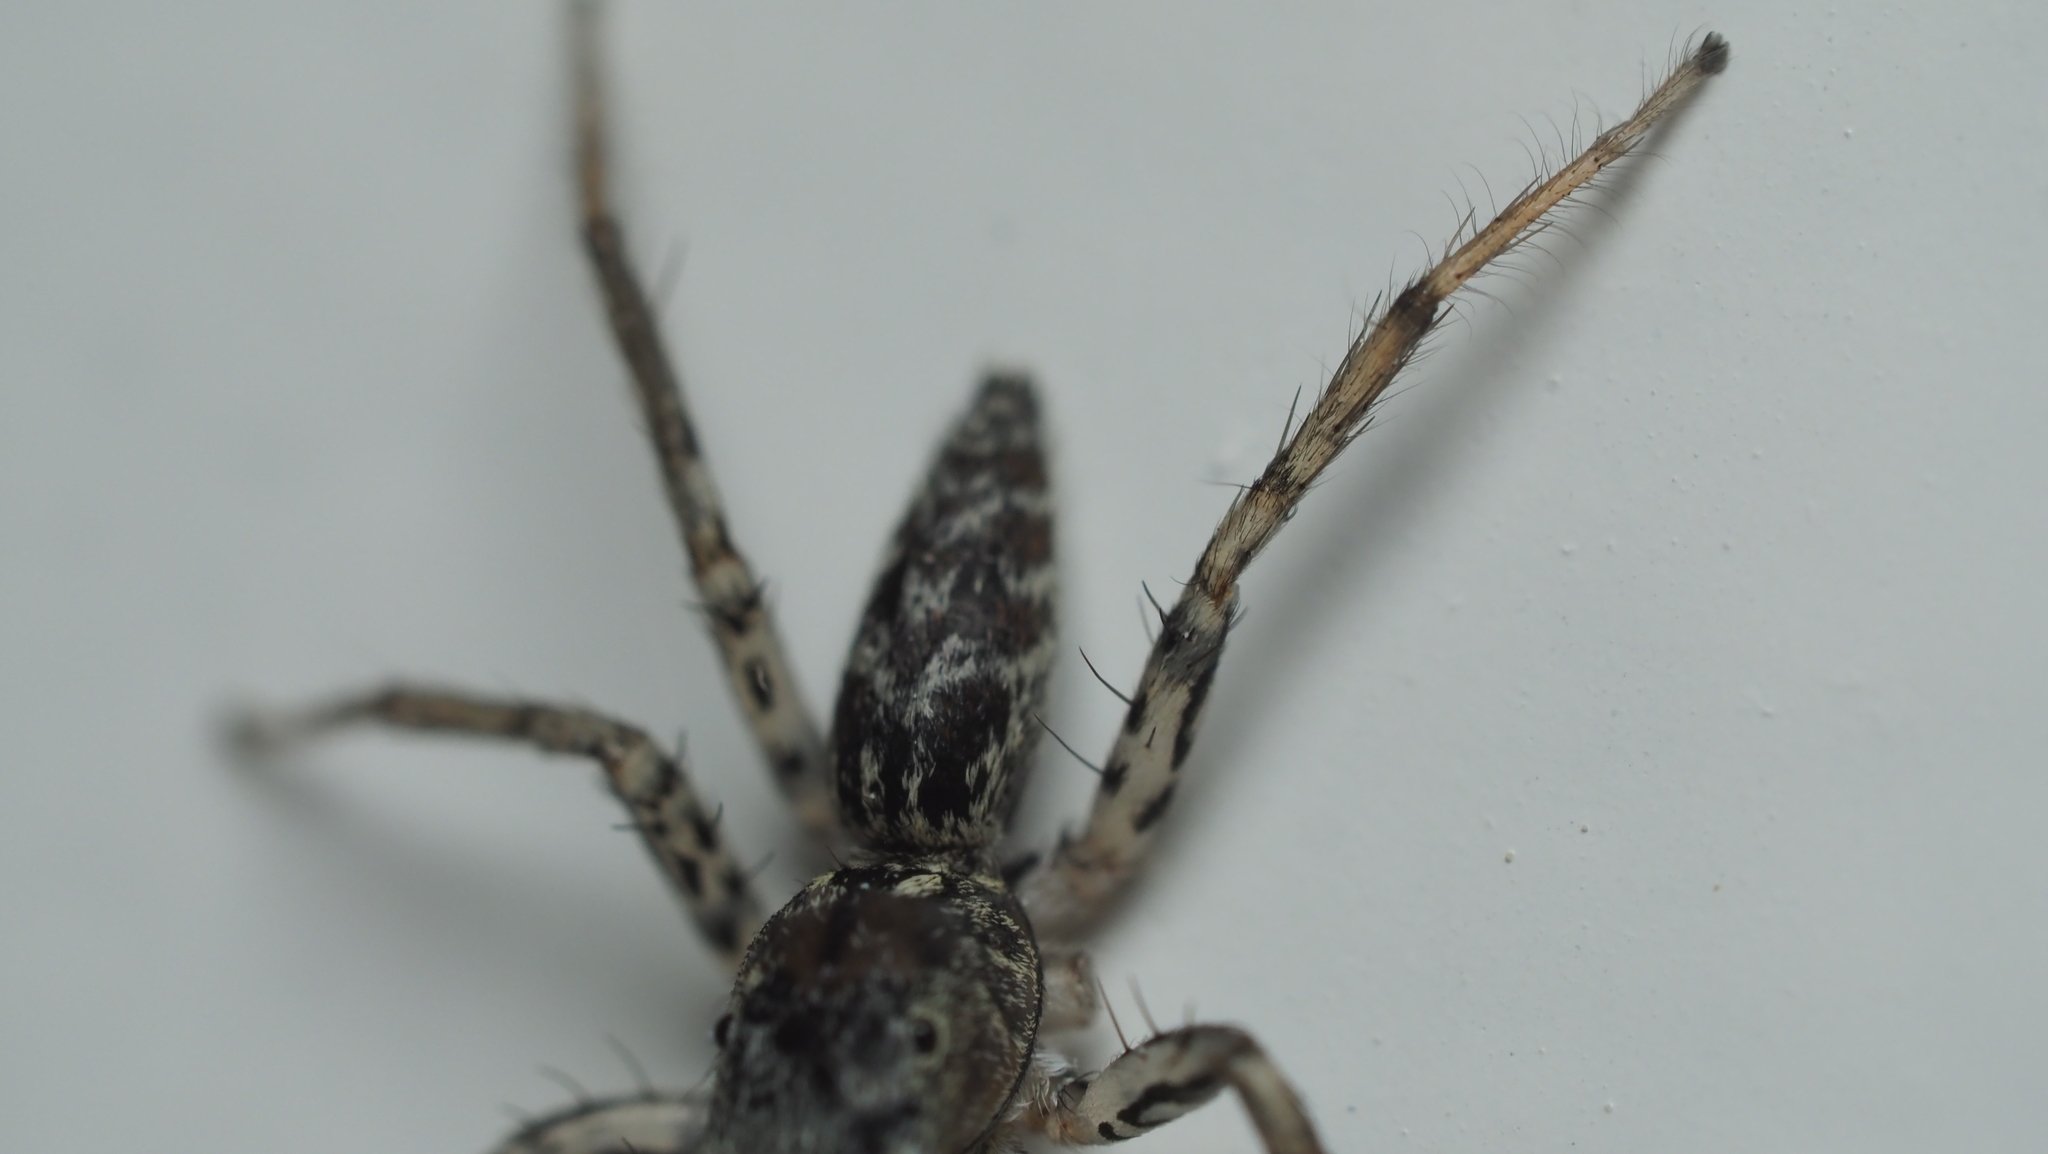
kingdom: Animalia
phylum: Arthropoda
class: Arachnida
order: Araneae
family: Salticidae
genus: Maevia
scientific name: Maevia inclemens
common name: Dimorphic jumper
